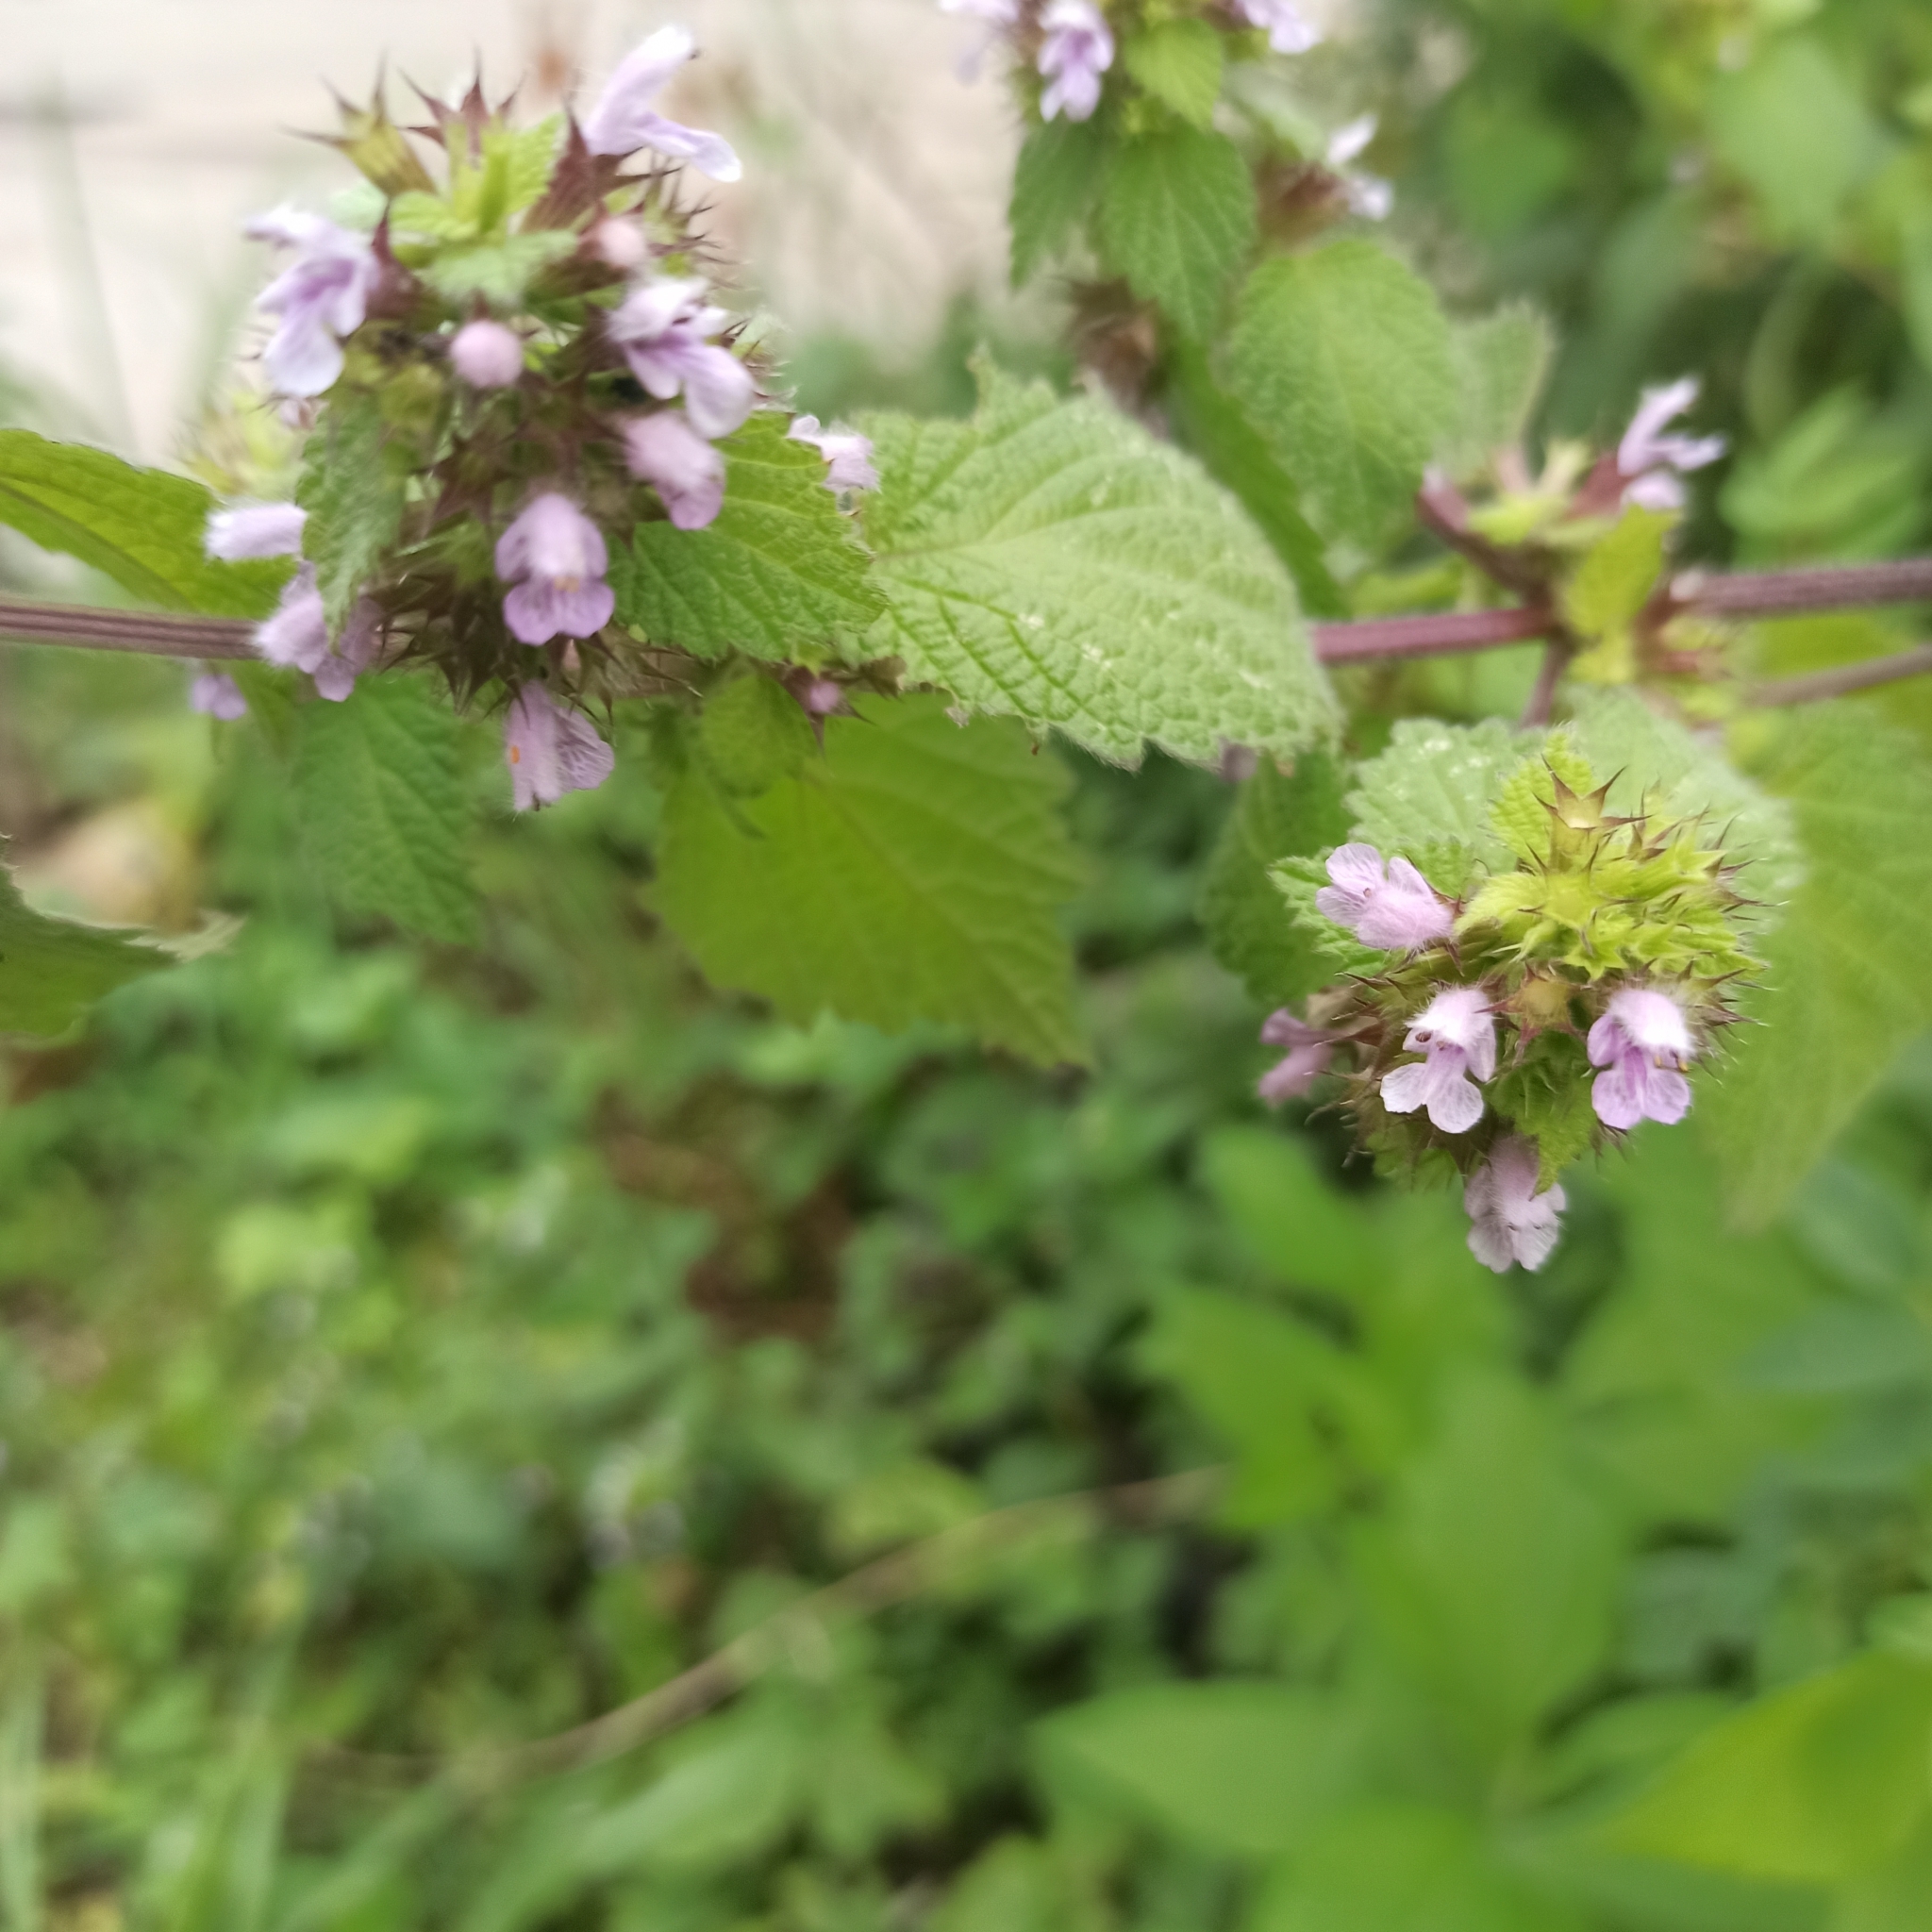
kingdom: Plantae
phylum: Tracheophyta
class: Magnoliopsida
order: Lamiales
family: Lamiaceae
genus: Ballota
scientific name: Ballota nigra
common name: Black horehound
